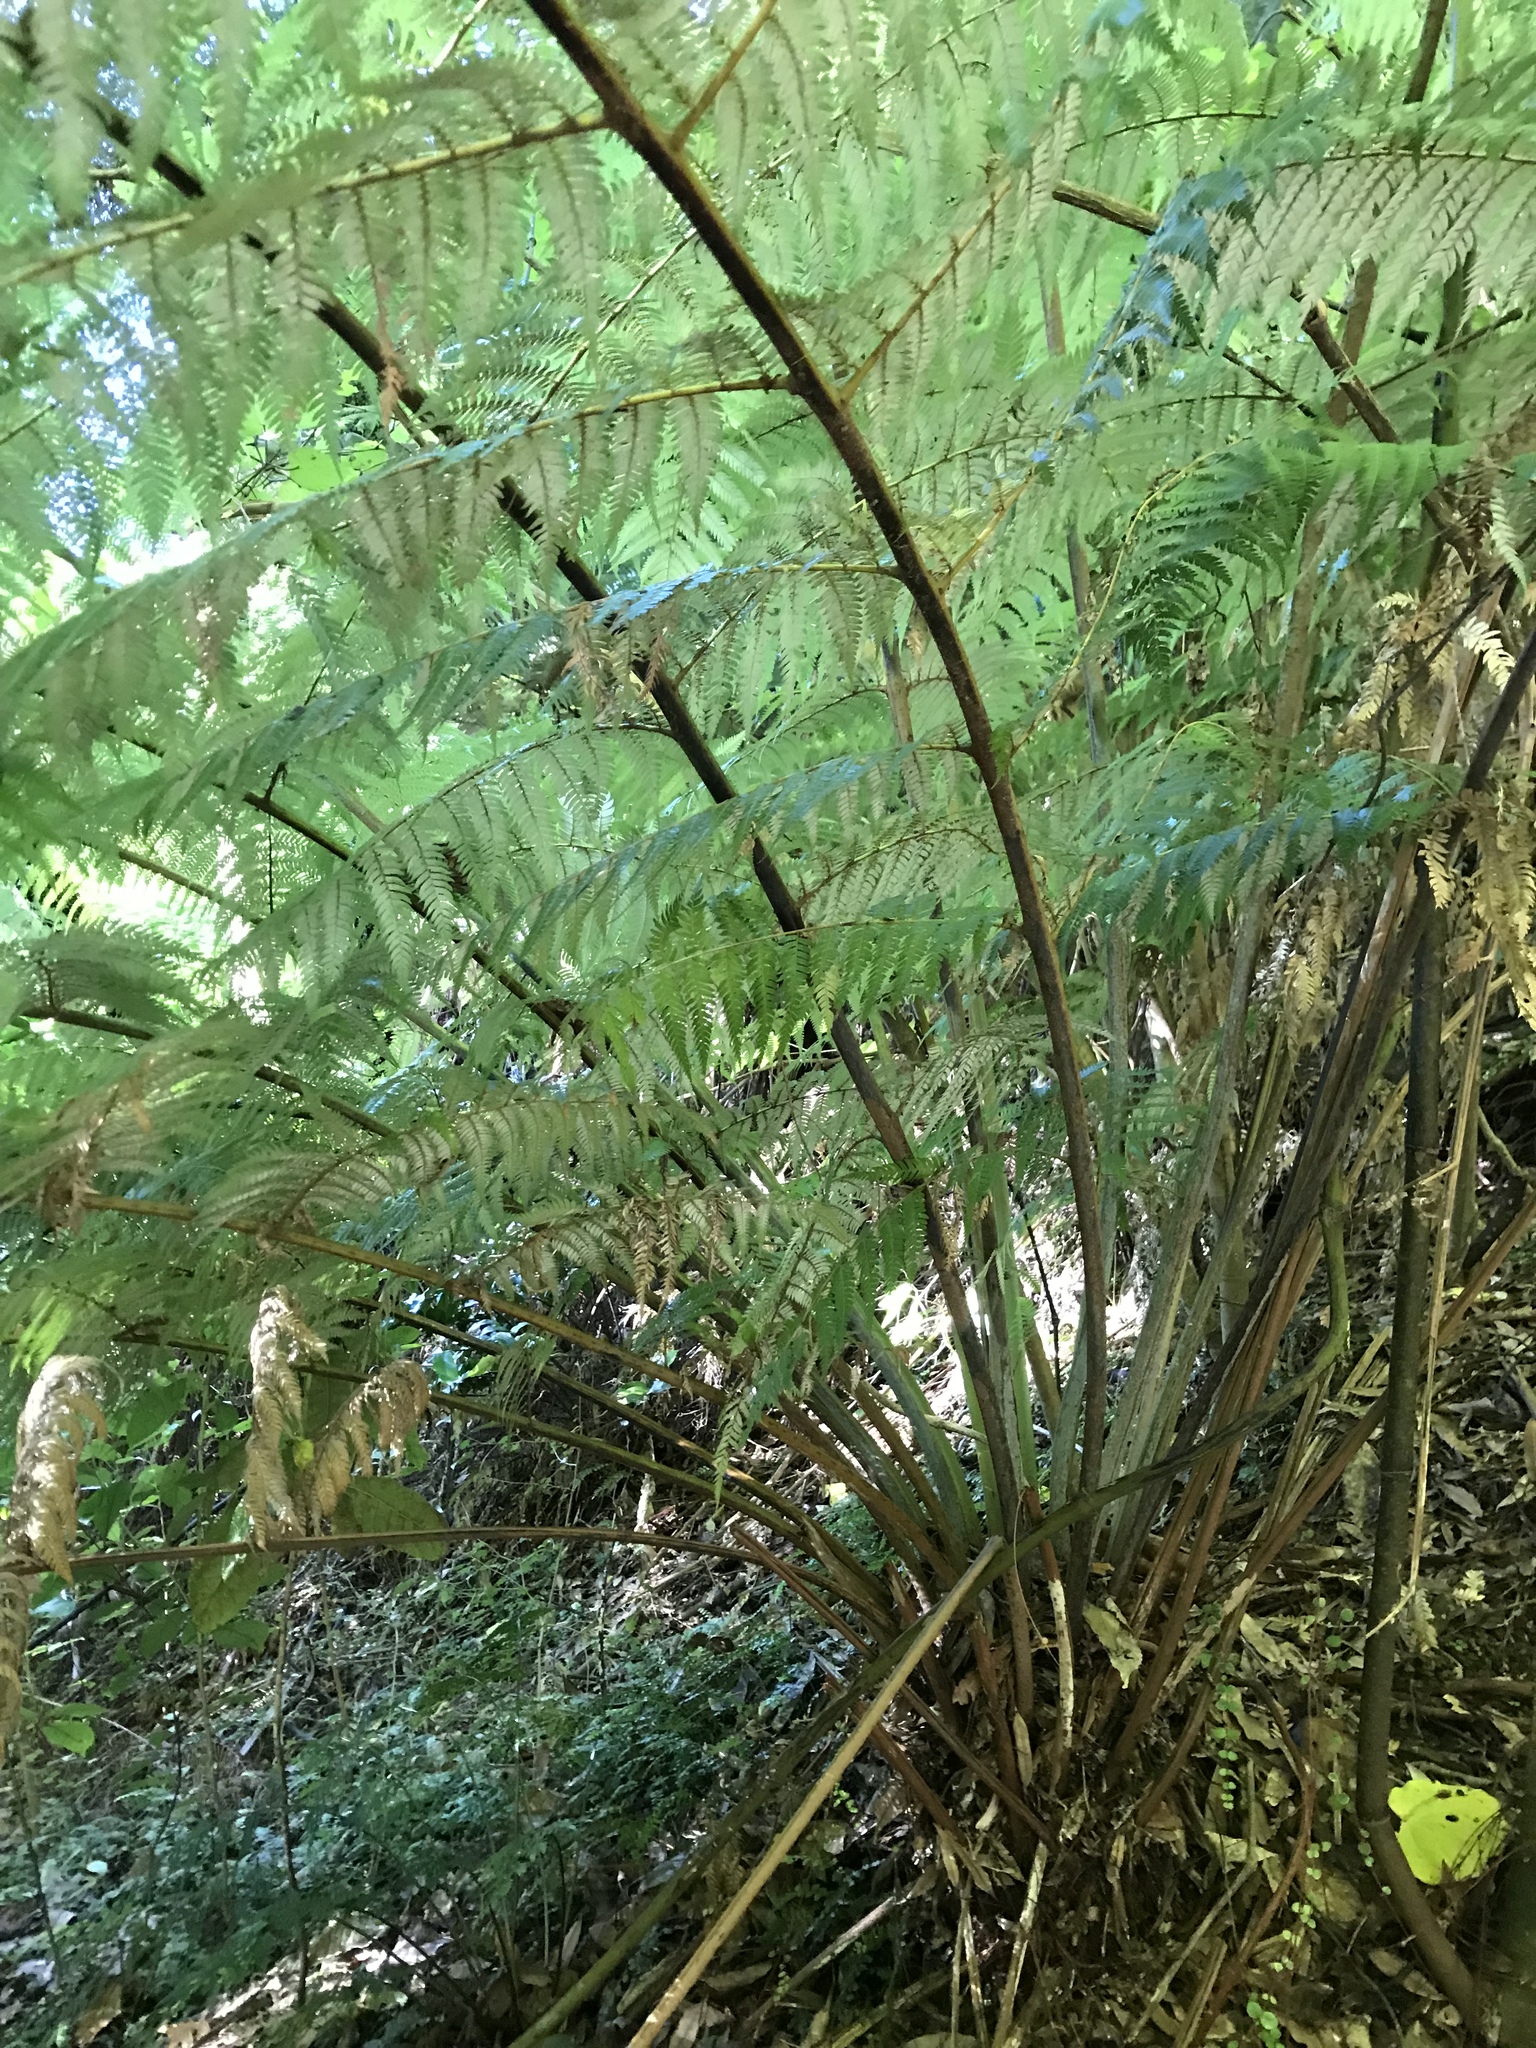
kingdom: Plantae
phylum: Tracheophyta
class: Polypodiopsida
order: Cyatheales
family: Cyatheaceae
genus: Alsophila
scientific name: Alsophila dealbata
